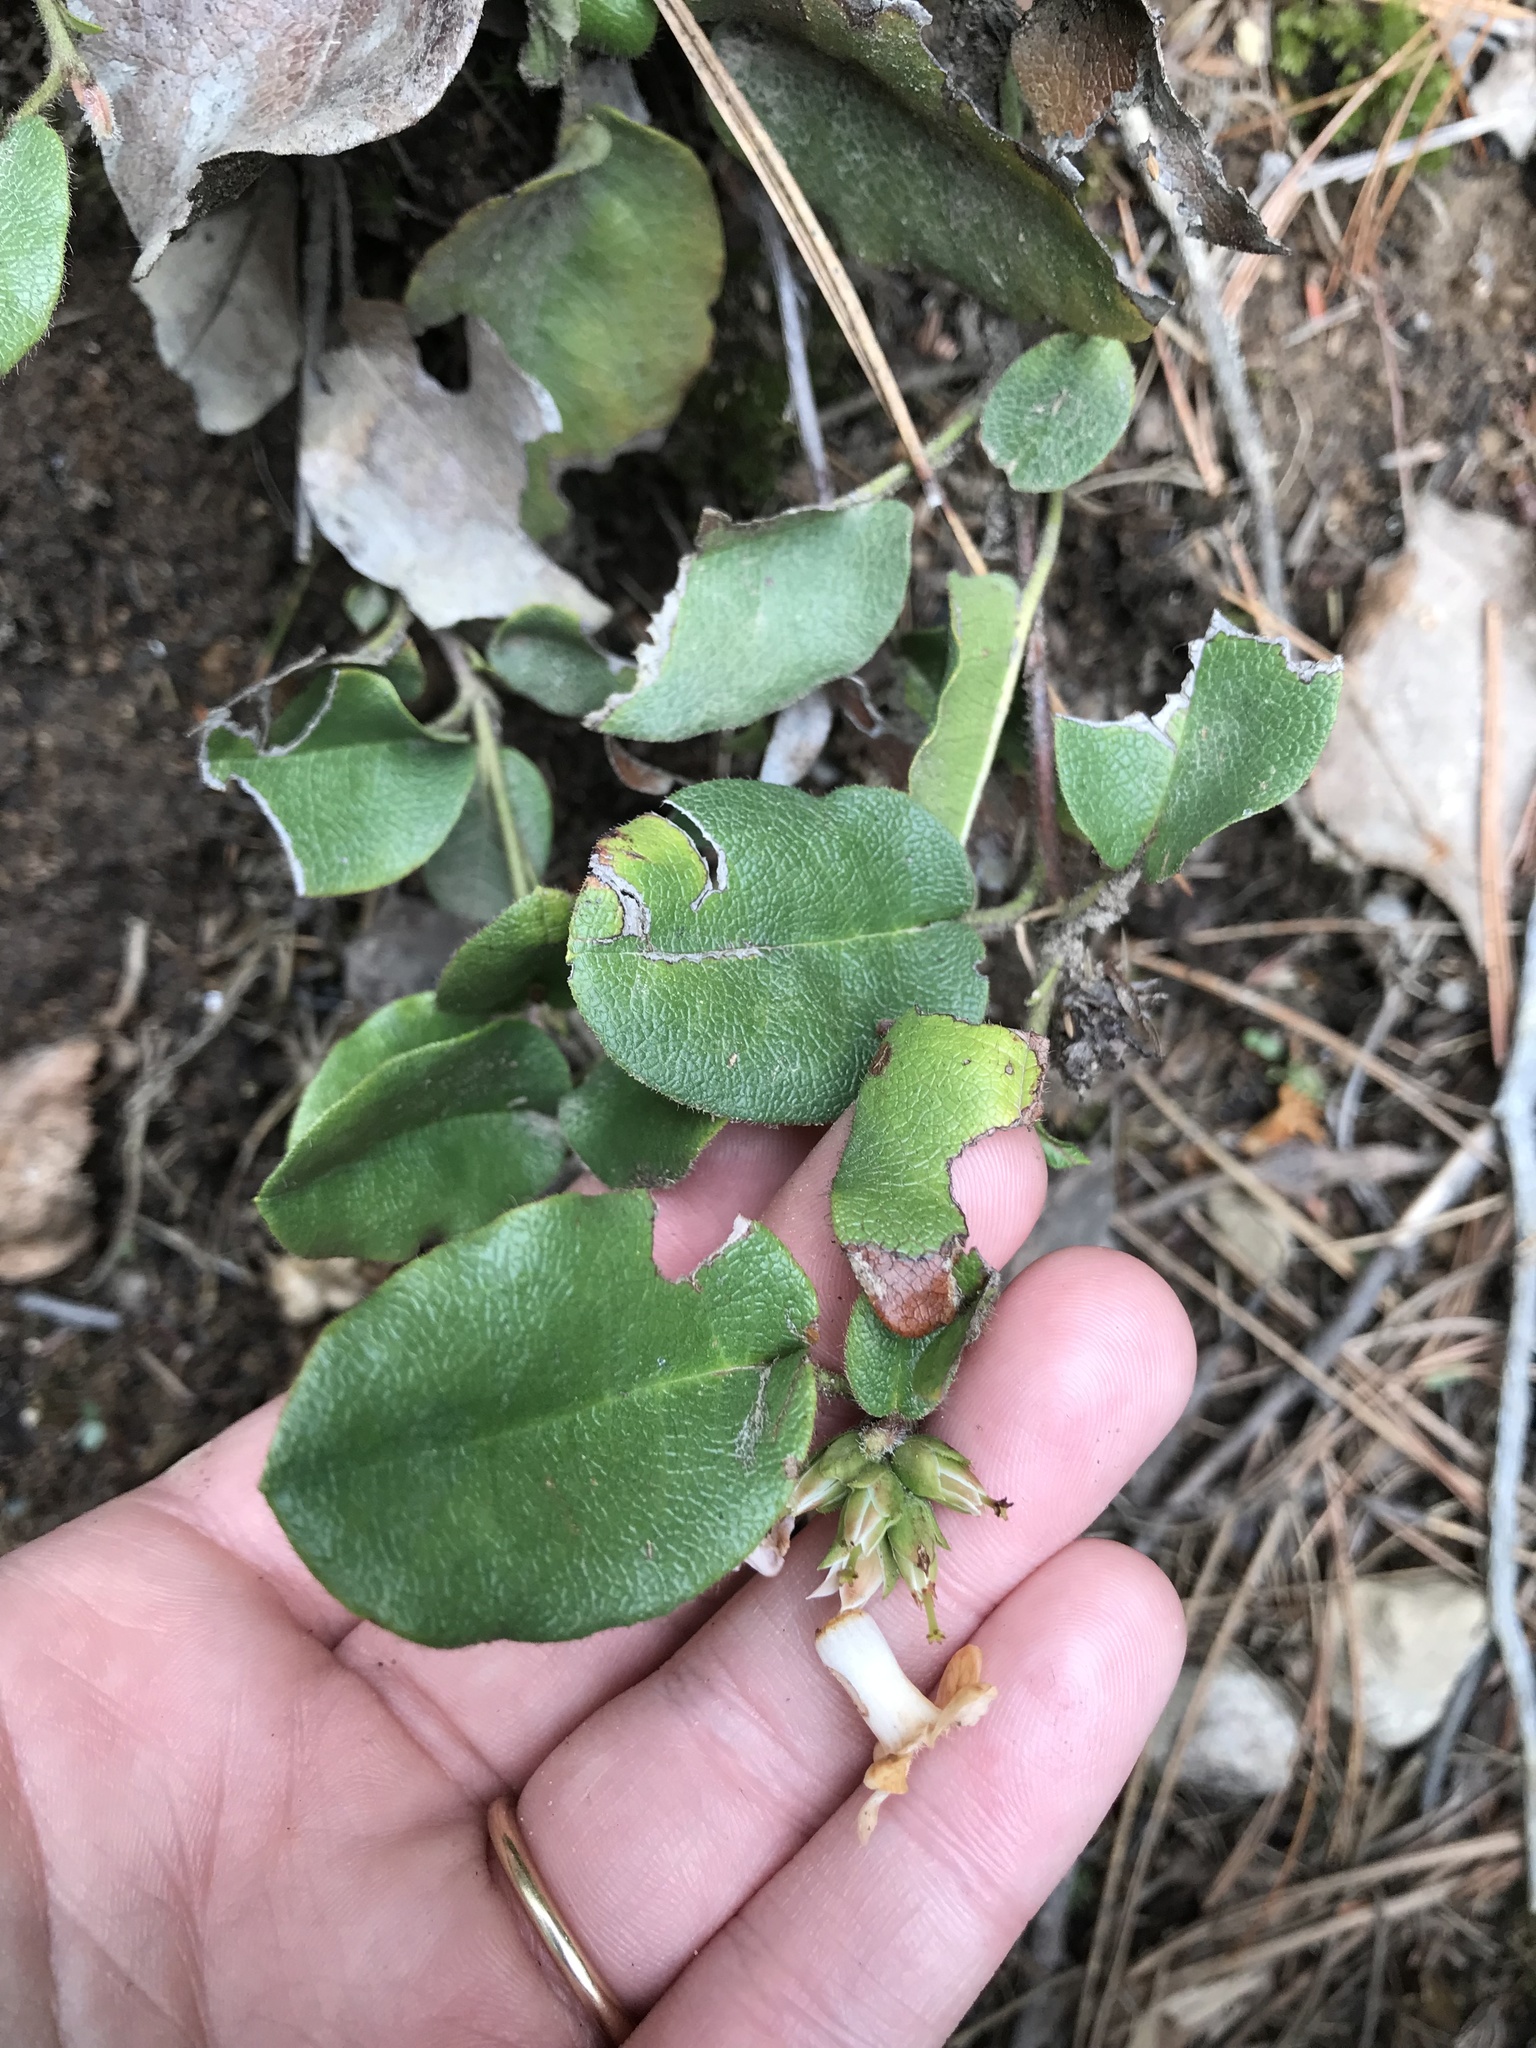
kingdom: Plantae
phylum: Tracheophyta
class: Magnoliopsida
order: Ericales
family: Ericaceae
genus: Epigaea
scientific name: Epigaea repens
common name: Gravelroot
